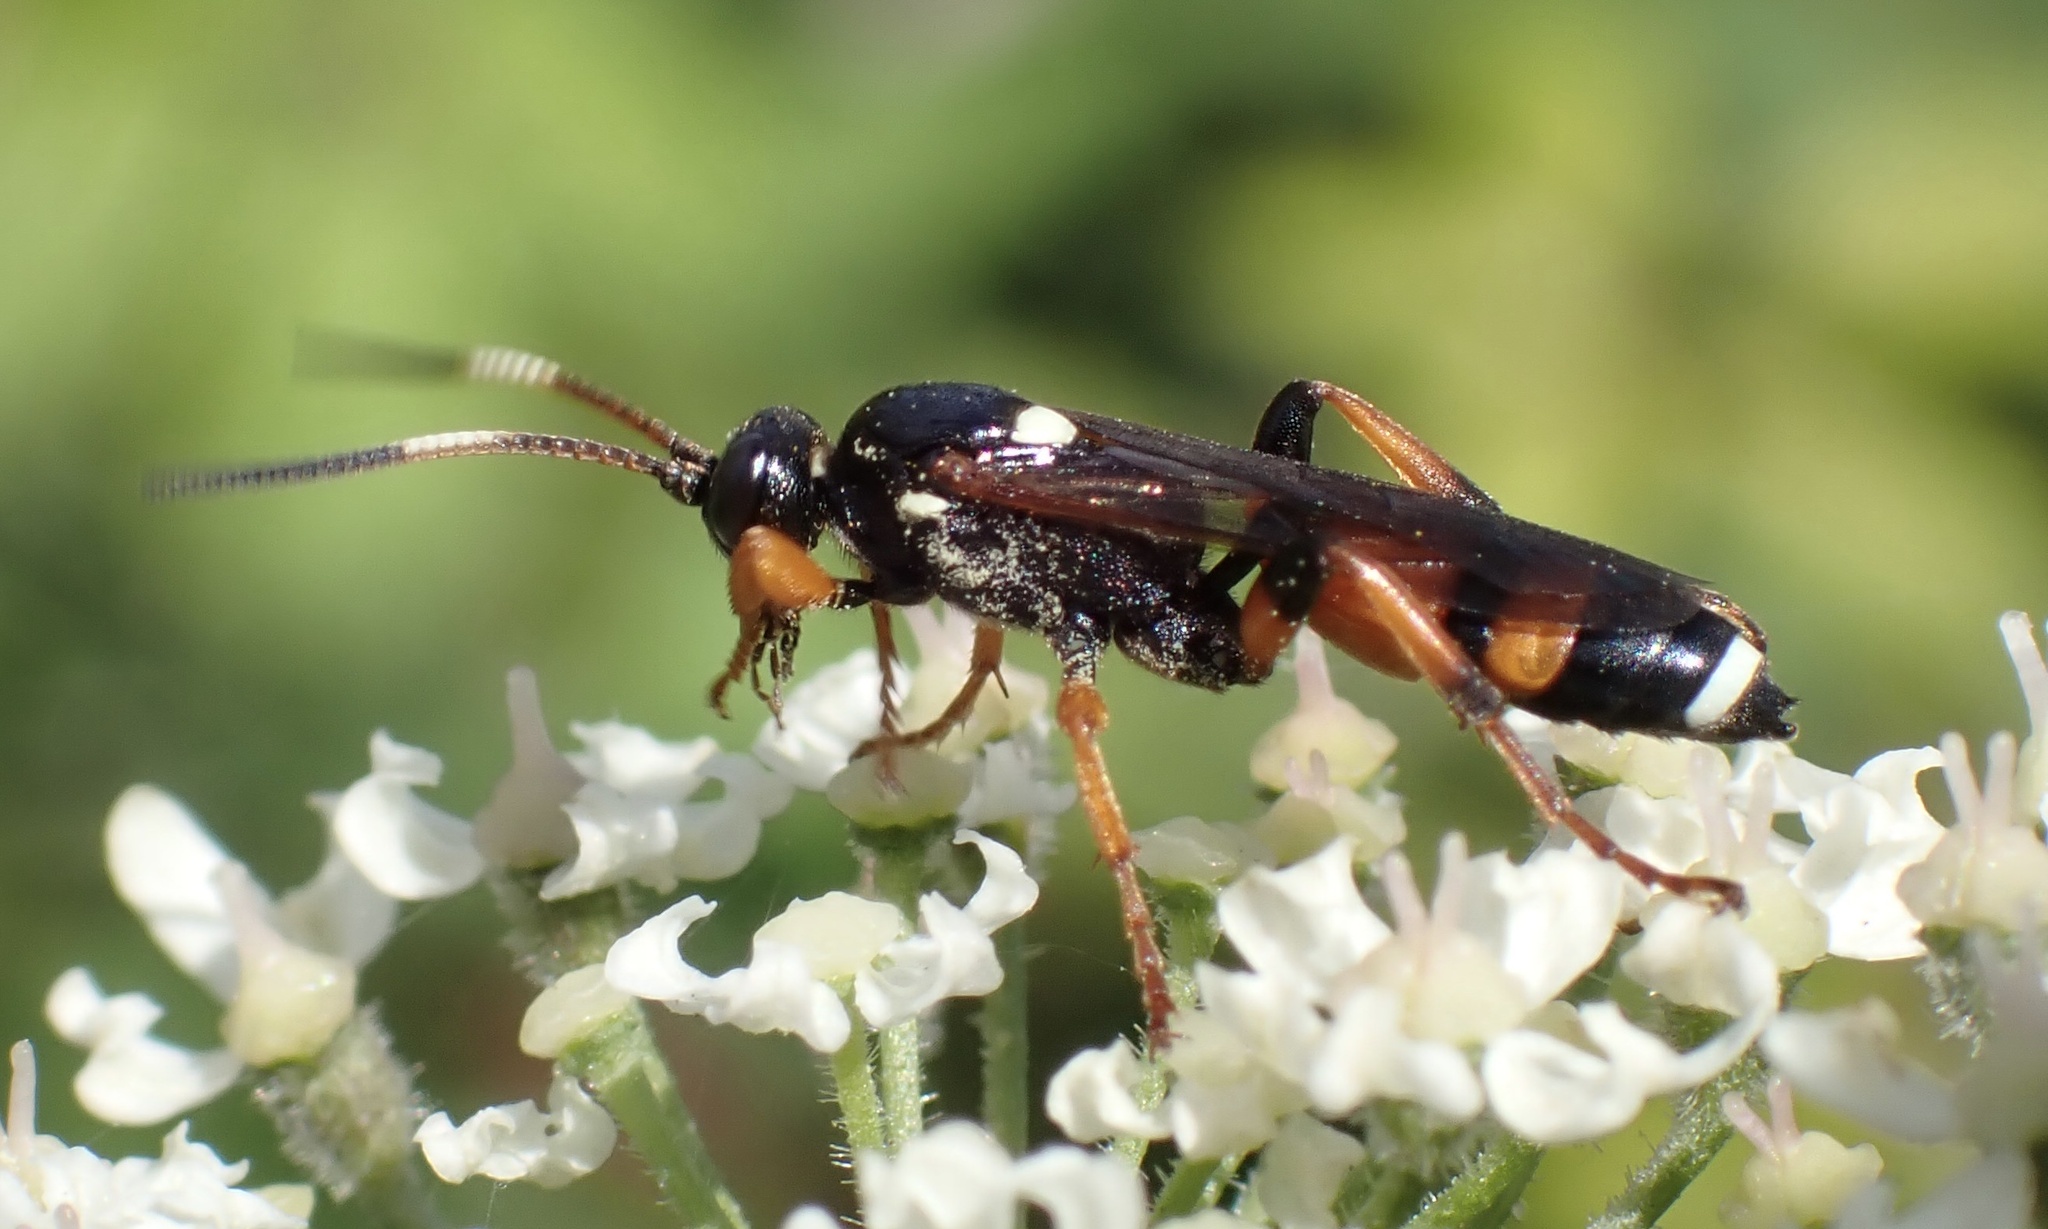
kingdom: Animalia
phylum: Arthropoda
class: Insecta
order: Hymenoptera
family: Ichneumonidae
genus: Ichneumon
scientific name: Ichneumon sarcitorius
